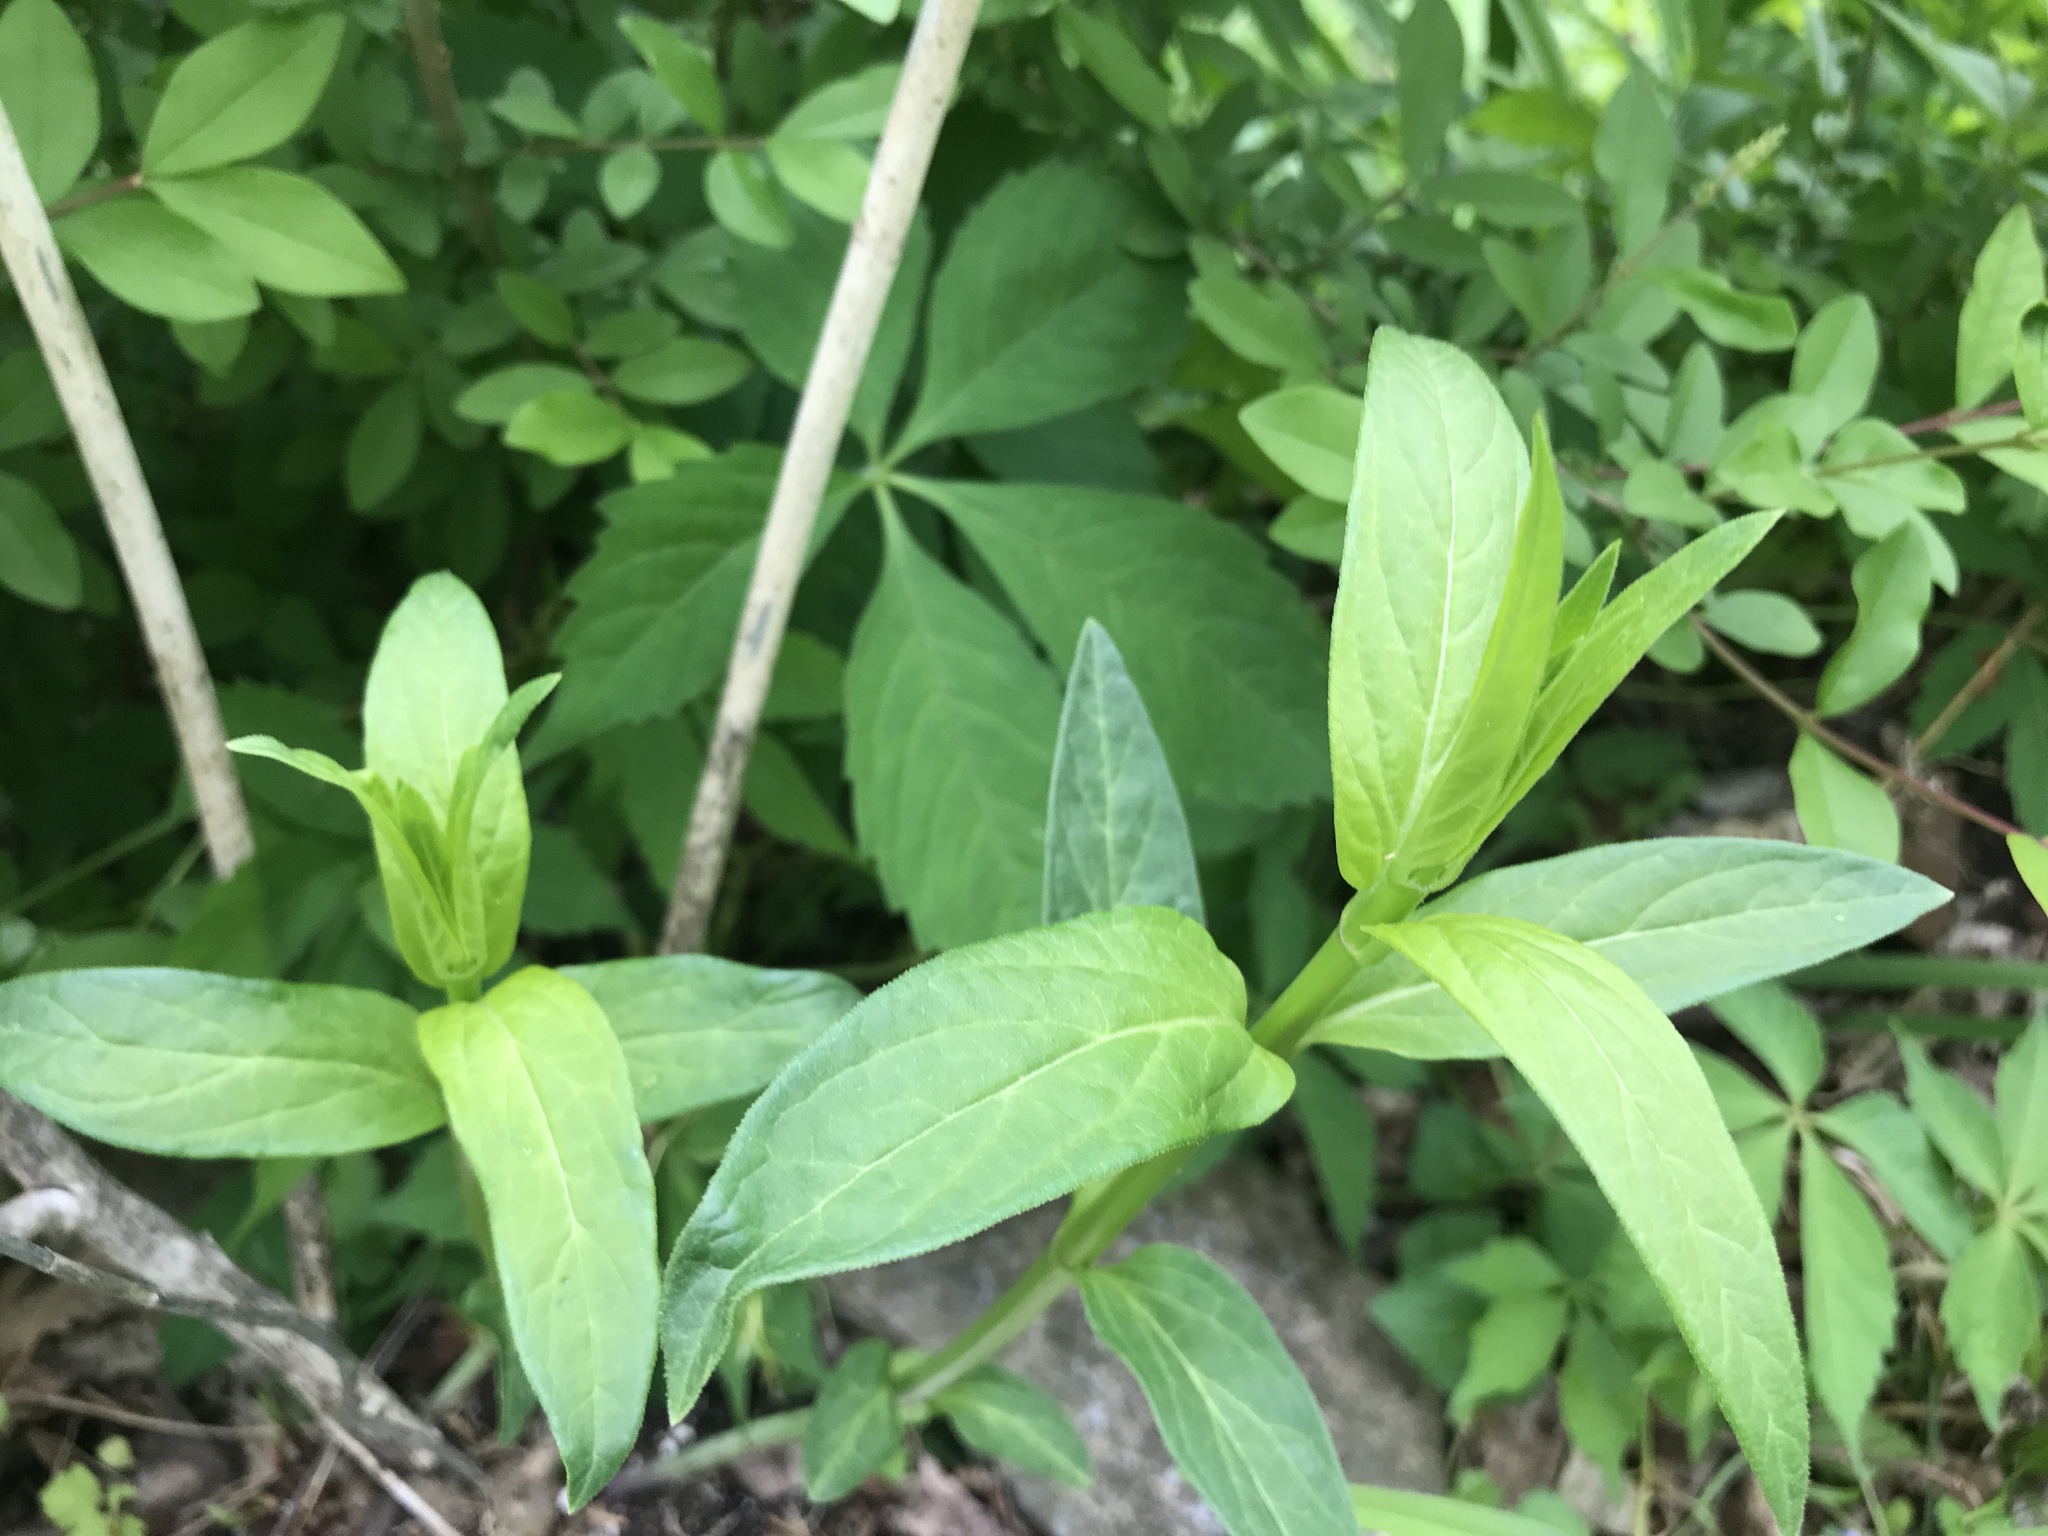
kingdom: Plantae
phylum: Tracheophyta
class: Magnoliopsida
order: Gentianales
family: Apocynaceae
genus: Asclepias
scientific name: Asclepias incarnata
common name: Swamp milkweed
